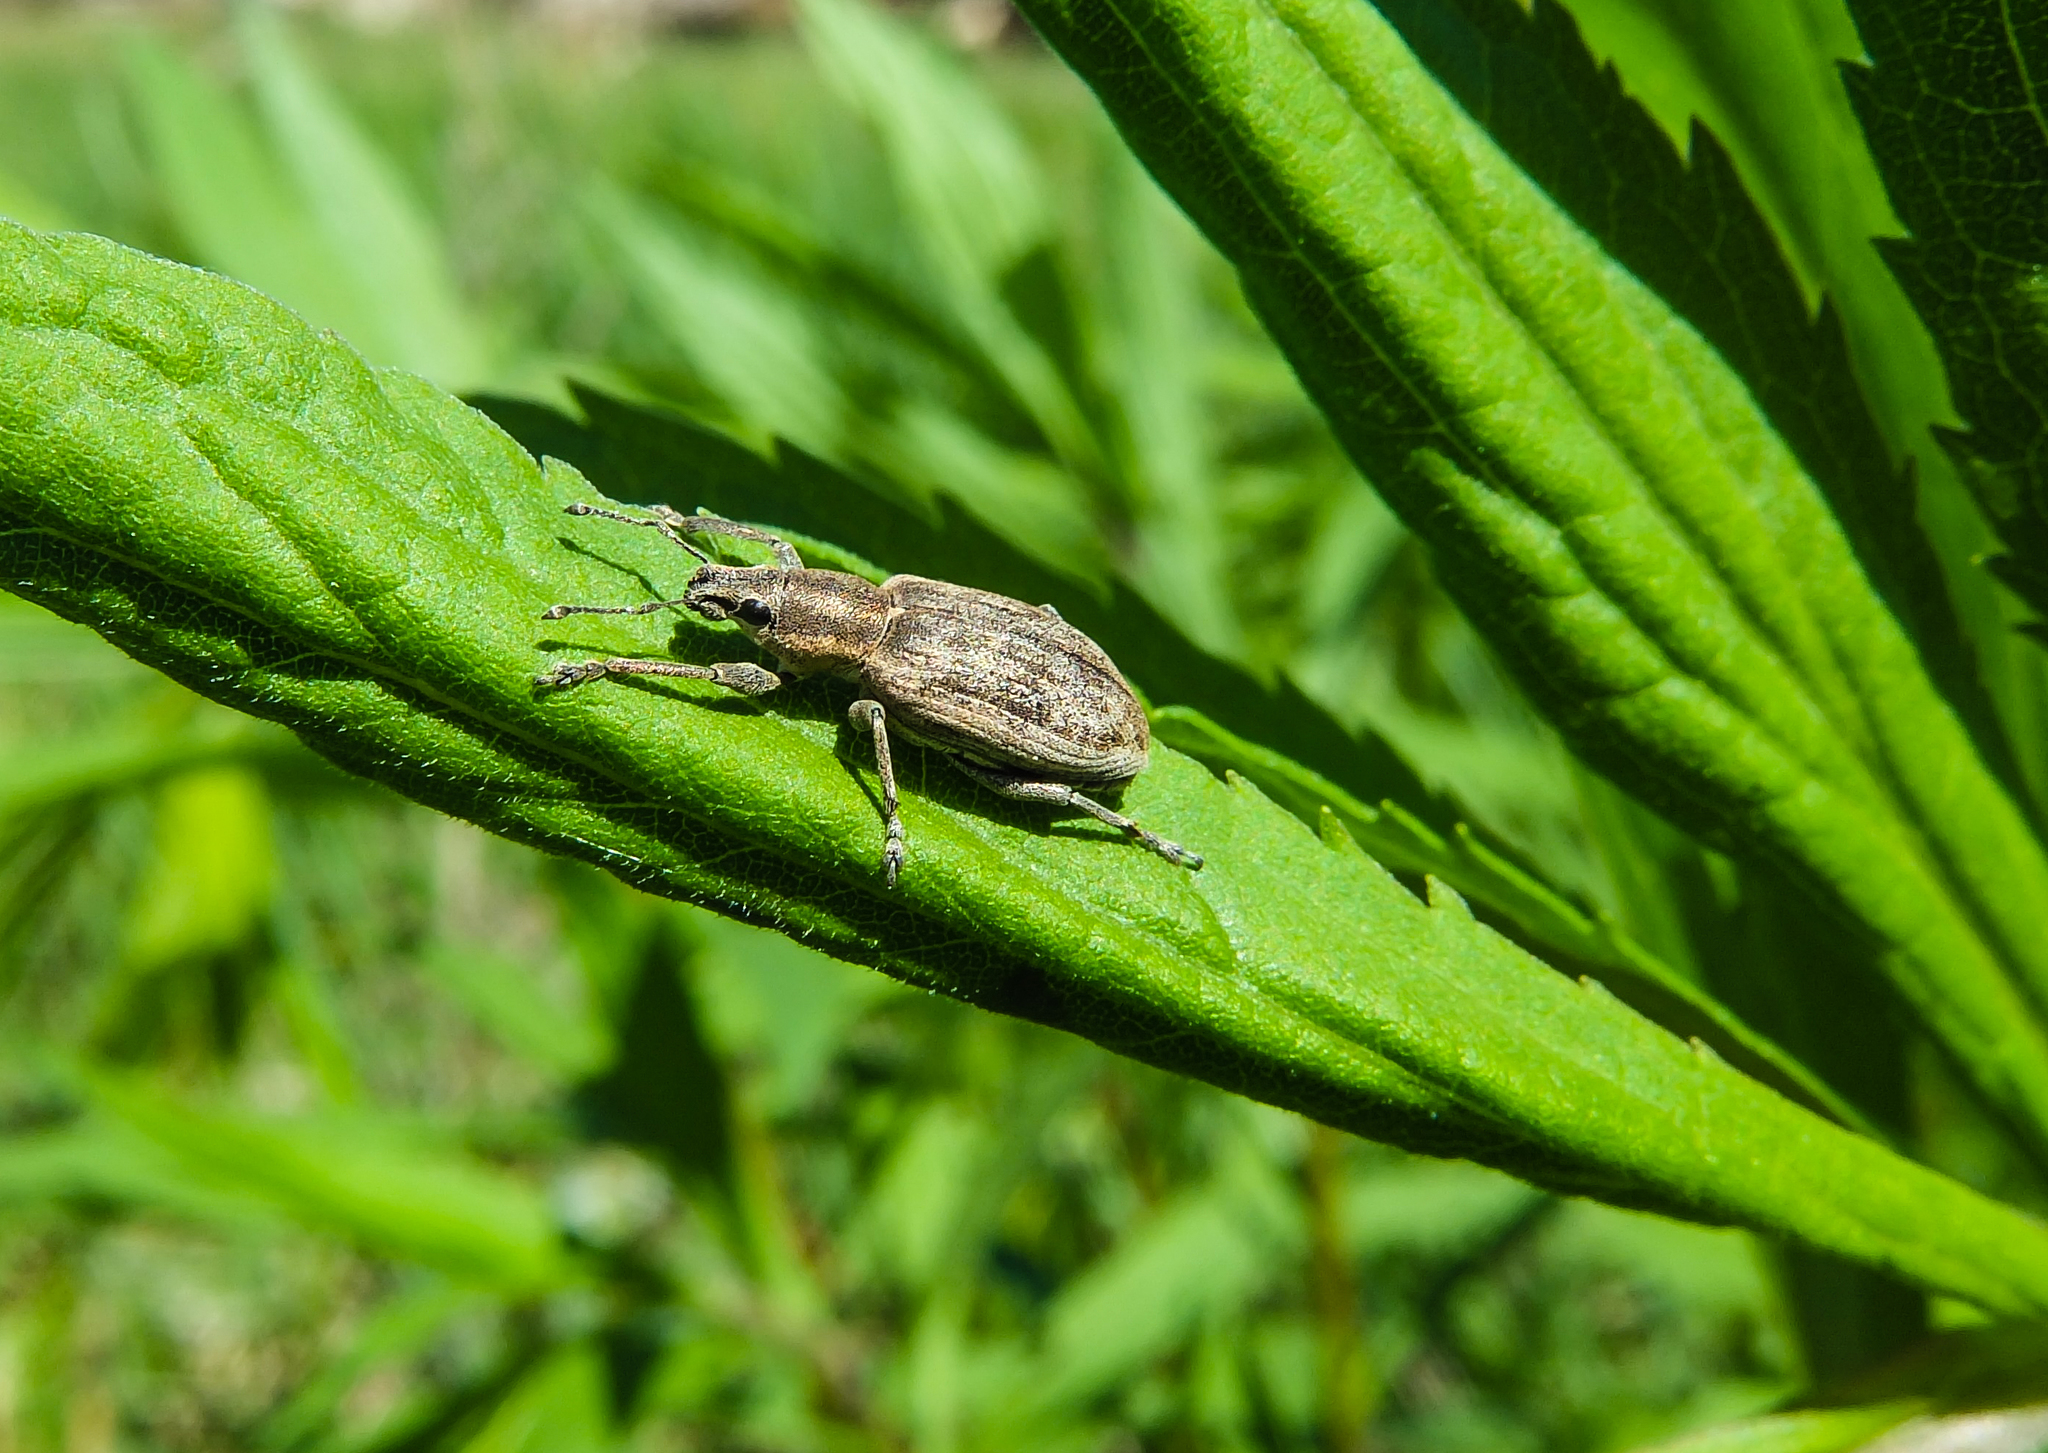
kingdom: Animalia
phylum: Arthropoda
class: Insecta
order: Coleoptera
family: Curculionidae
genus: Tanymecus
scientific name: Tanymecus palliatus
